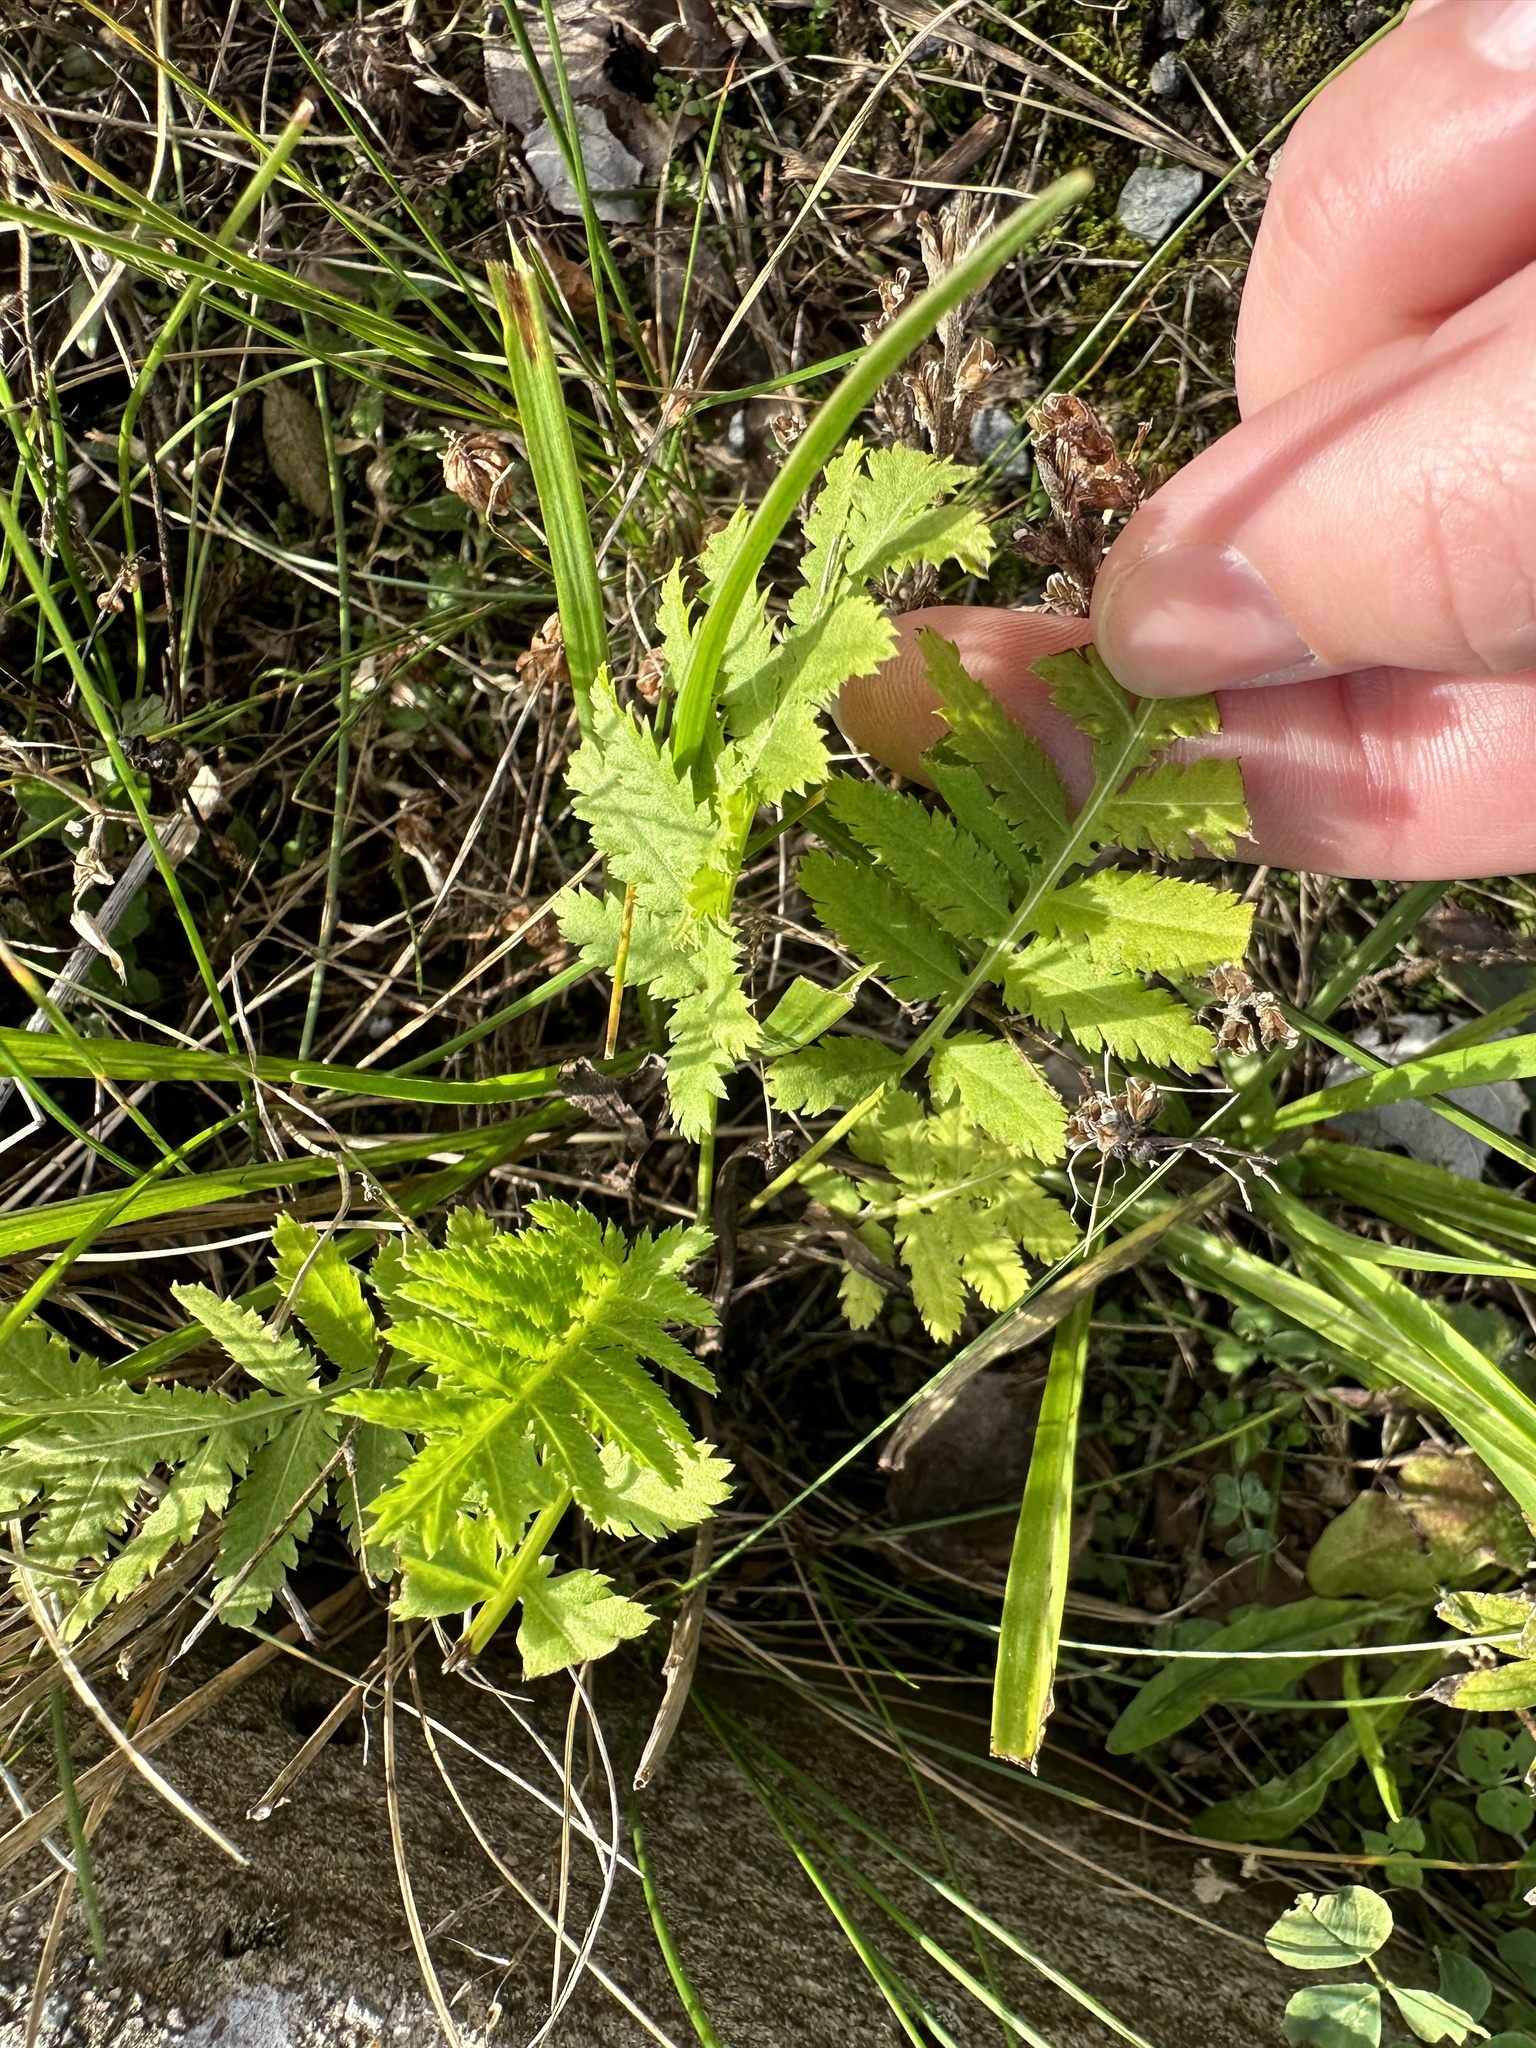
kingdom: Plantae
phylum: Tracheophyta
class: Magnoliopsida
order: Asterales
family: Asteraceae
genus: Tanacetum
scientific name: Tanacetum vulgare
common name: Common tansy
